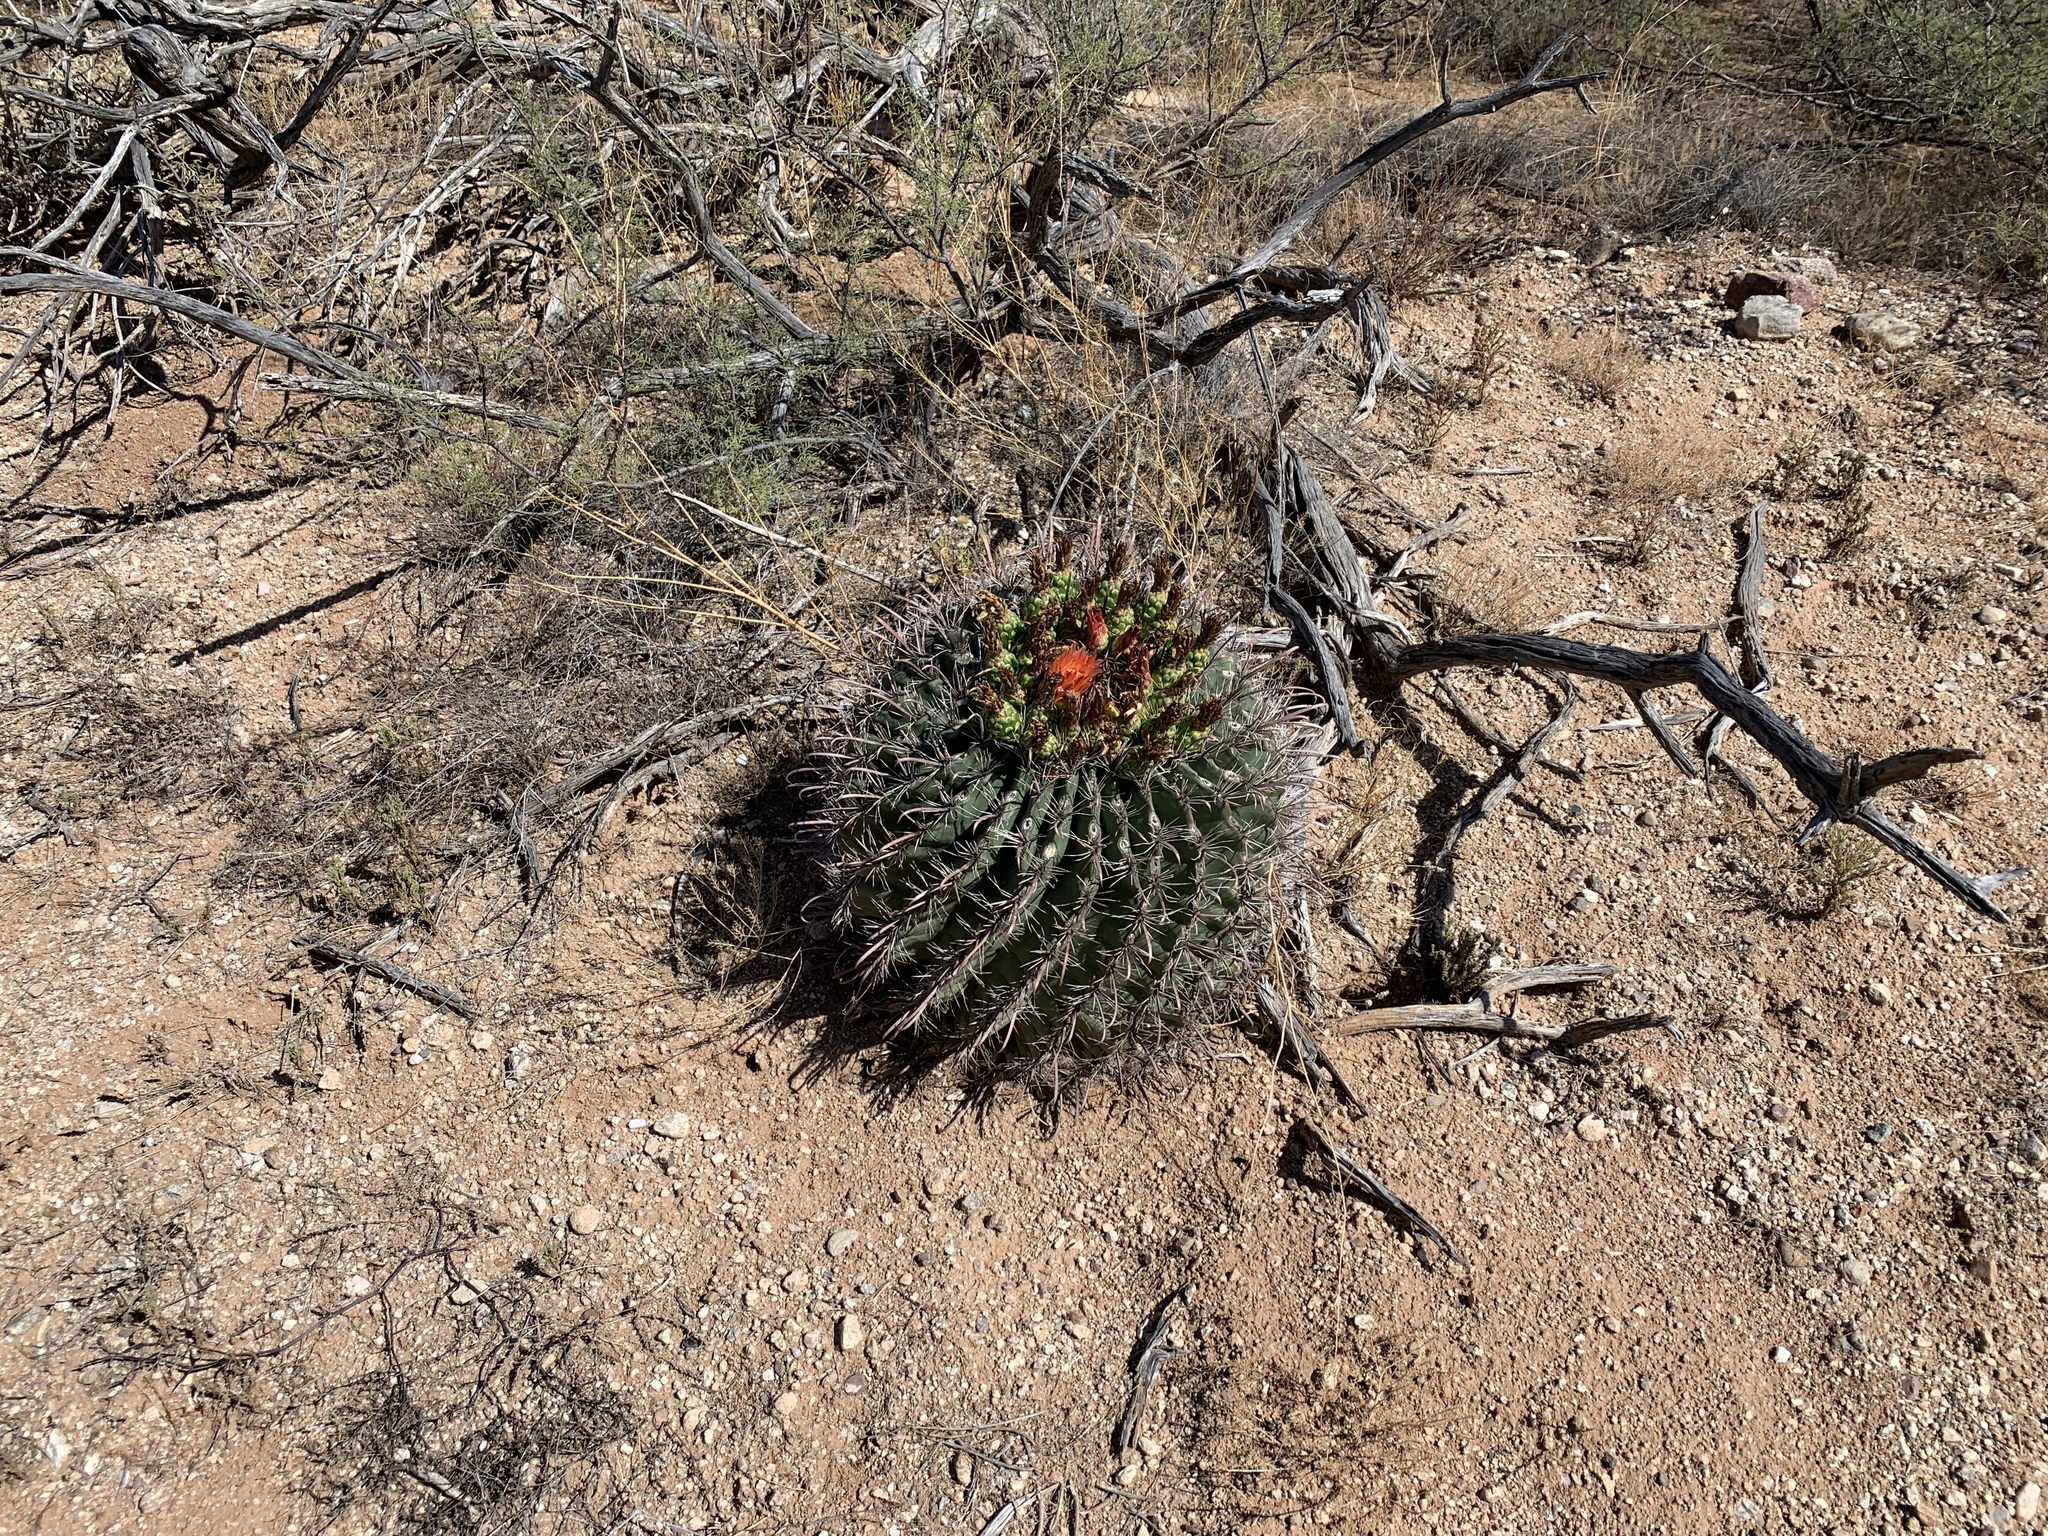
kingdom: Plantae
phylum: Tracheophyta
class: Magnoliopsida
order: Caryophyllales
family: Cactaceae
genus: Ferocactus
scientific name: Ferocactus wislizeni
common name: Candy barrel cactus
